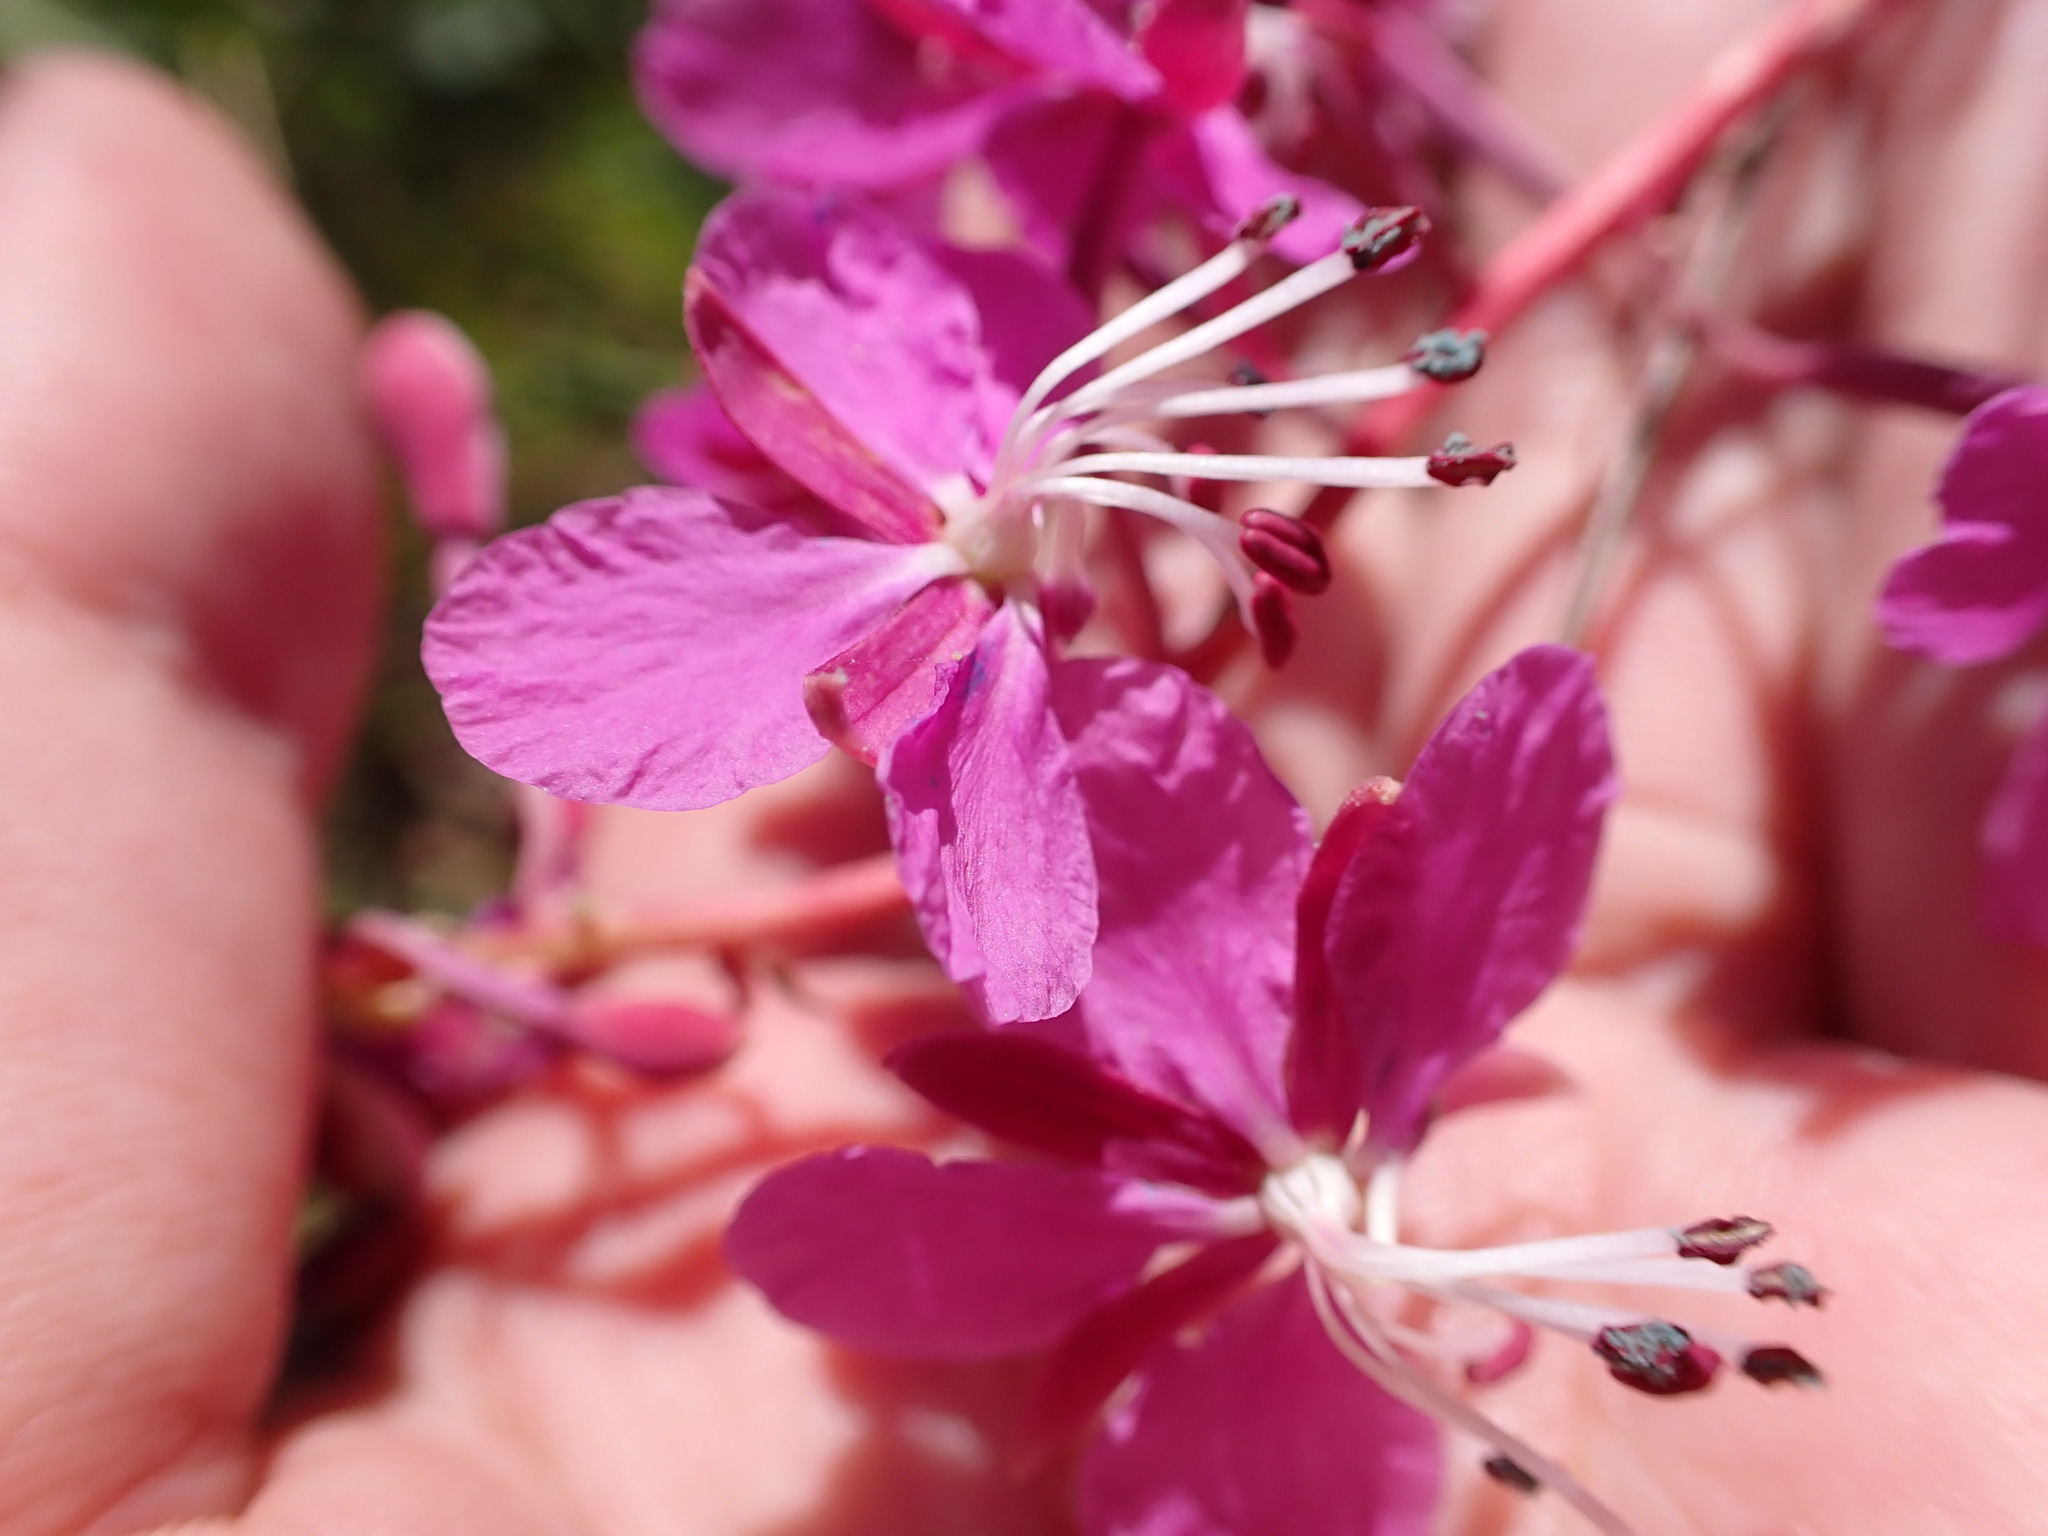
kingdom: Plantae
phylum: Tracheophyta
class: Magnoliopsida
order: Myrtales
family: Onagraceae
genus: Chamaenerion
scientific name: Chamaenerion angustifolium
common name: Fireweed
